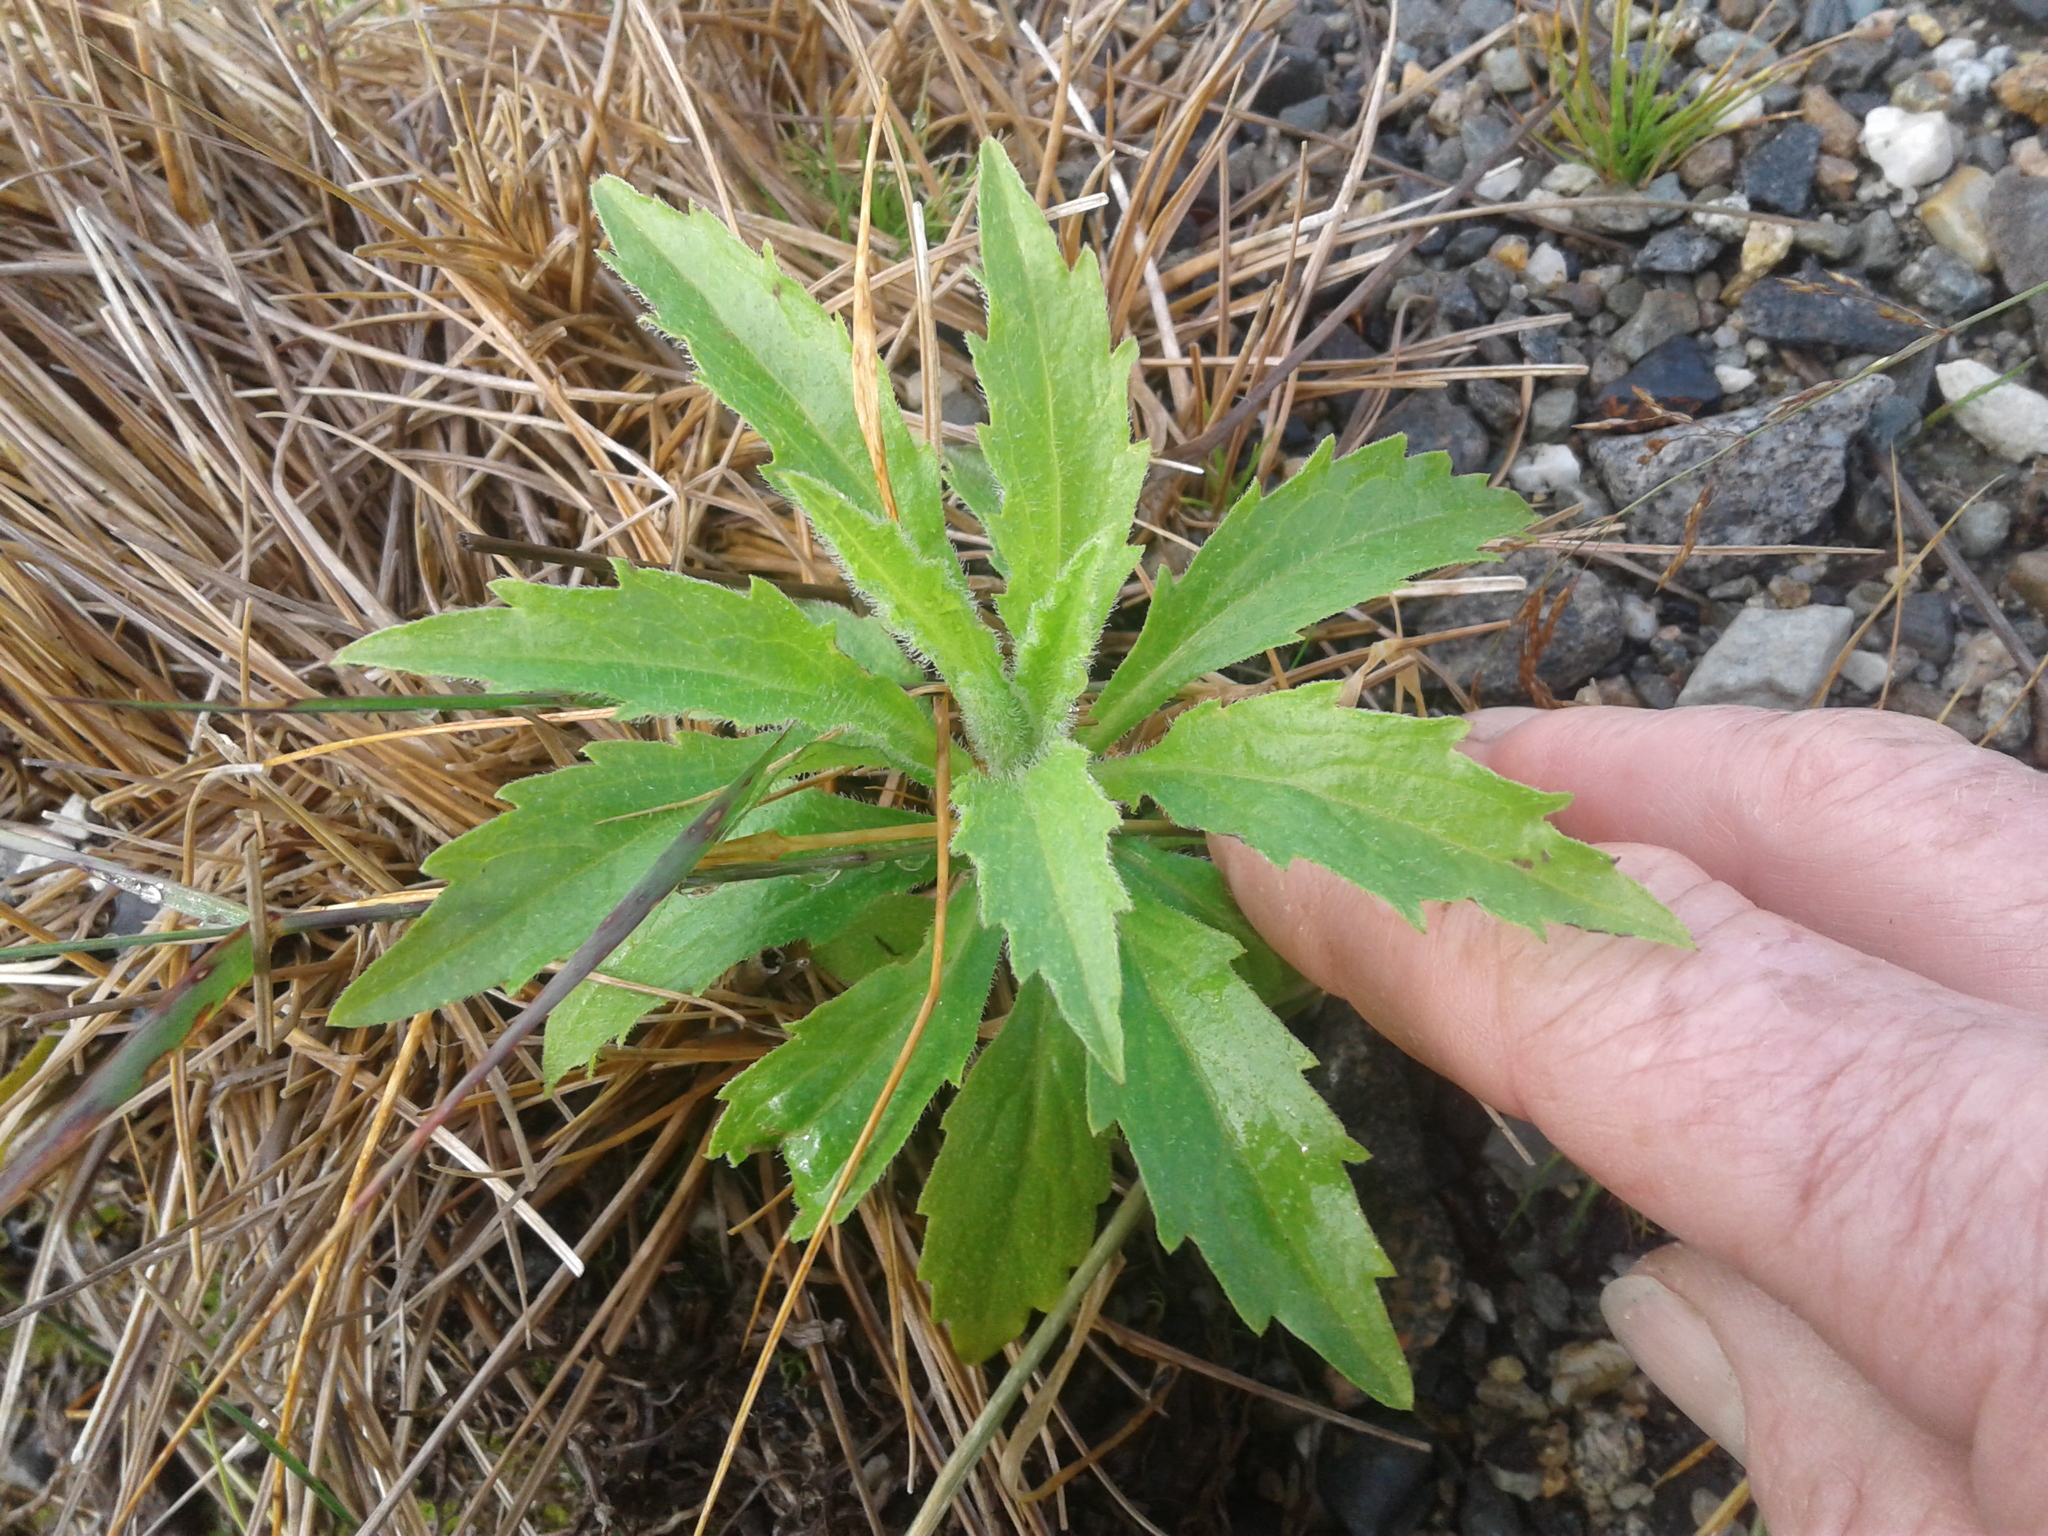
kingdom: Plantae
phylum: Tracheophyta
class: Magnoliopsida
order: Asterales
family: Asteraceae
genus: Erigeron
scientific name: Erigeron sumatrensis
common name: Daisy
